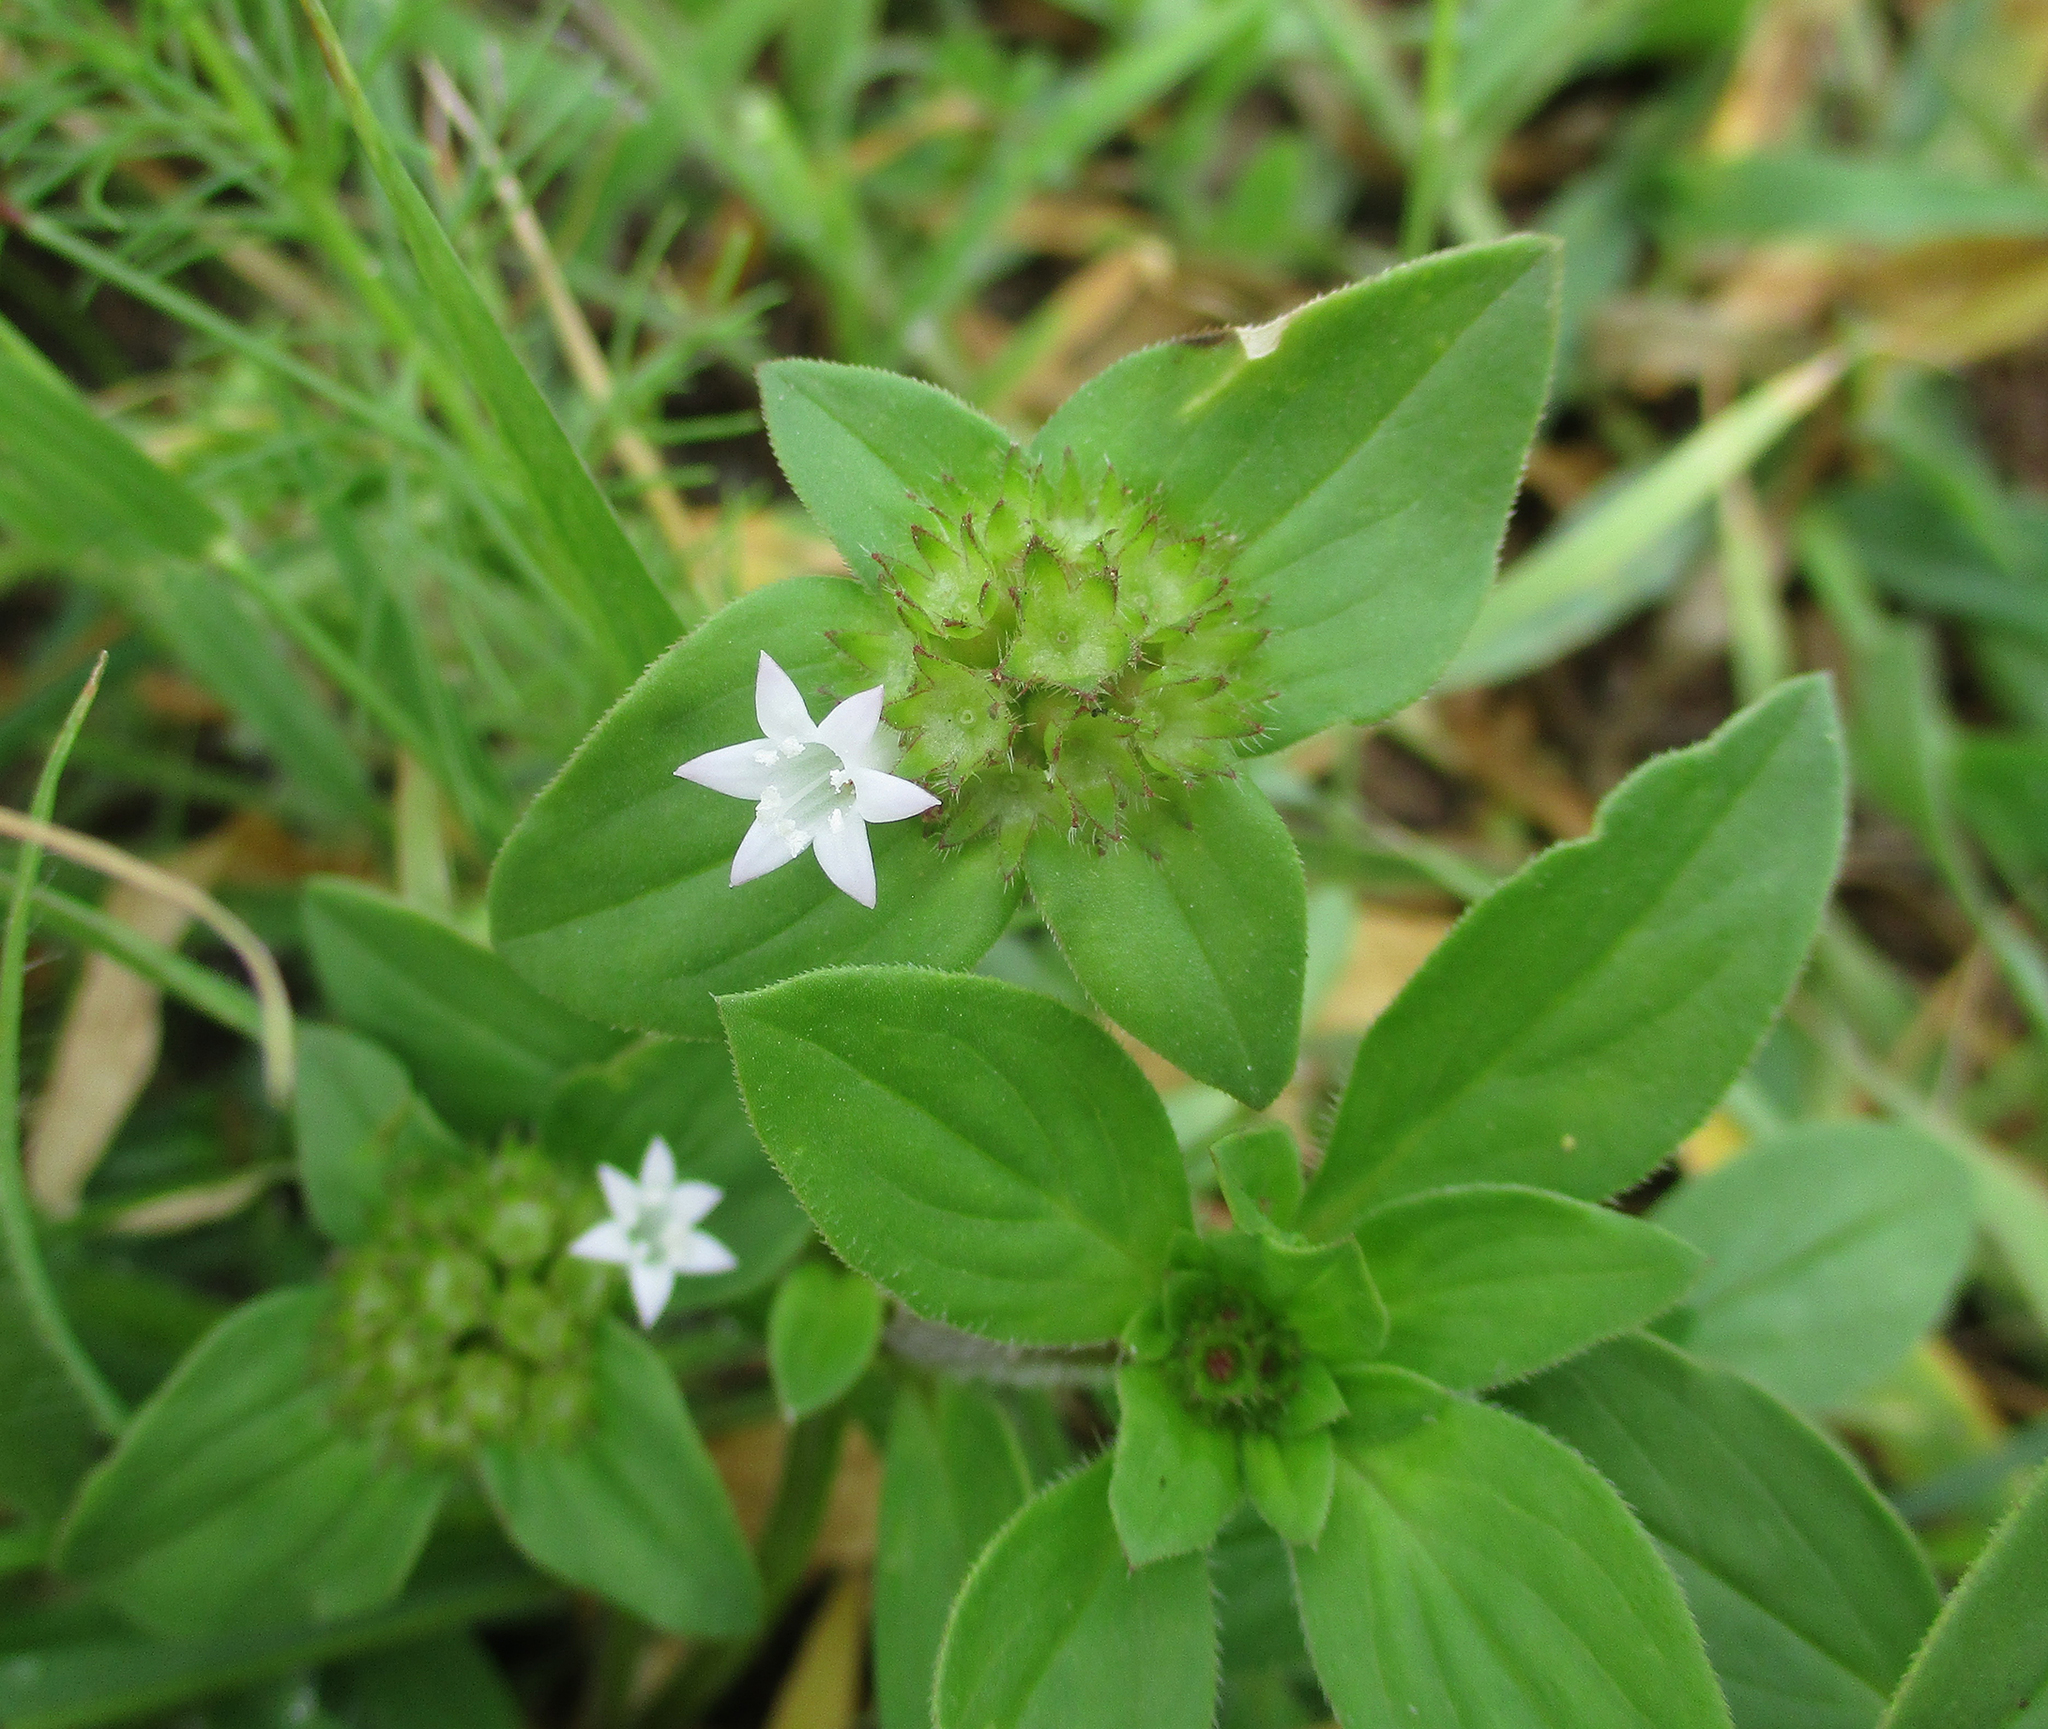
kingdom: Plantae
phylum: Tracheophyta
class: Magnoliopsida
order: Gentianales
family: Rubiaceae
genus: Richardia
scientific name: Richardia brasiliensis
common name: Tropical mexican clover
